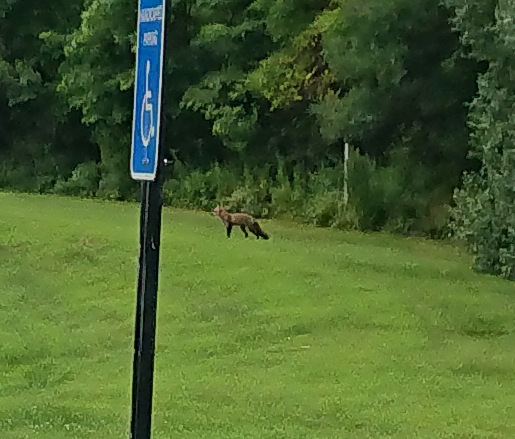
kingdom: Animalia
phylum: Chordata
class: Mammalia
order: Carnivora
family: Canidae
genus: Vulpes
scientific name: Vulpes vulpes
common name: Red fox
